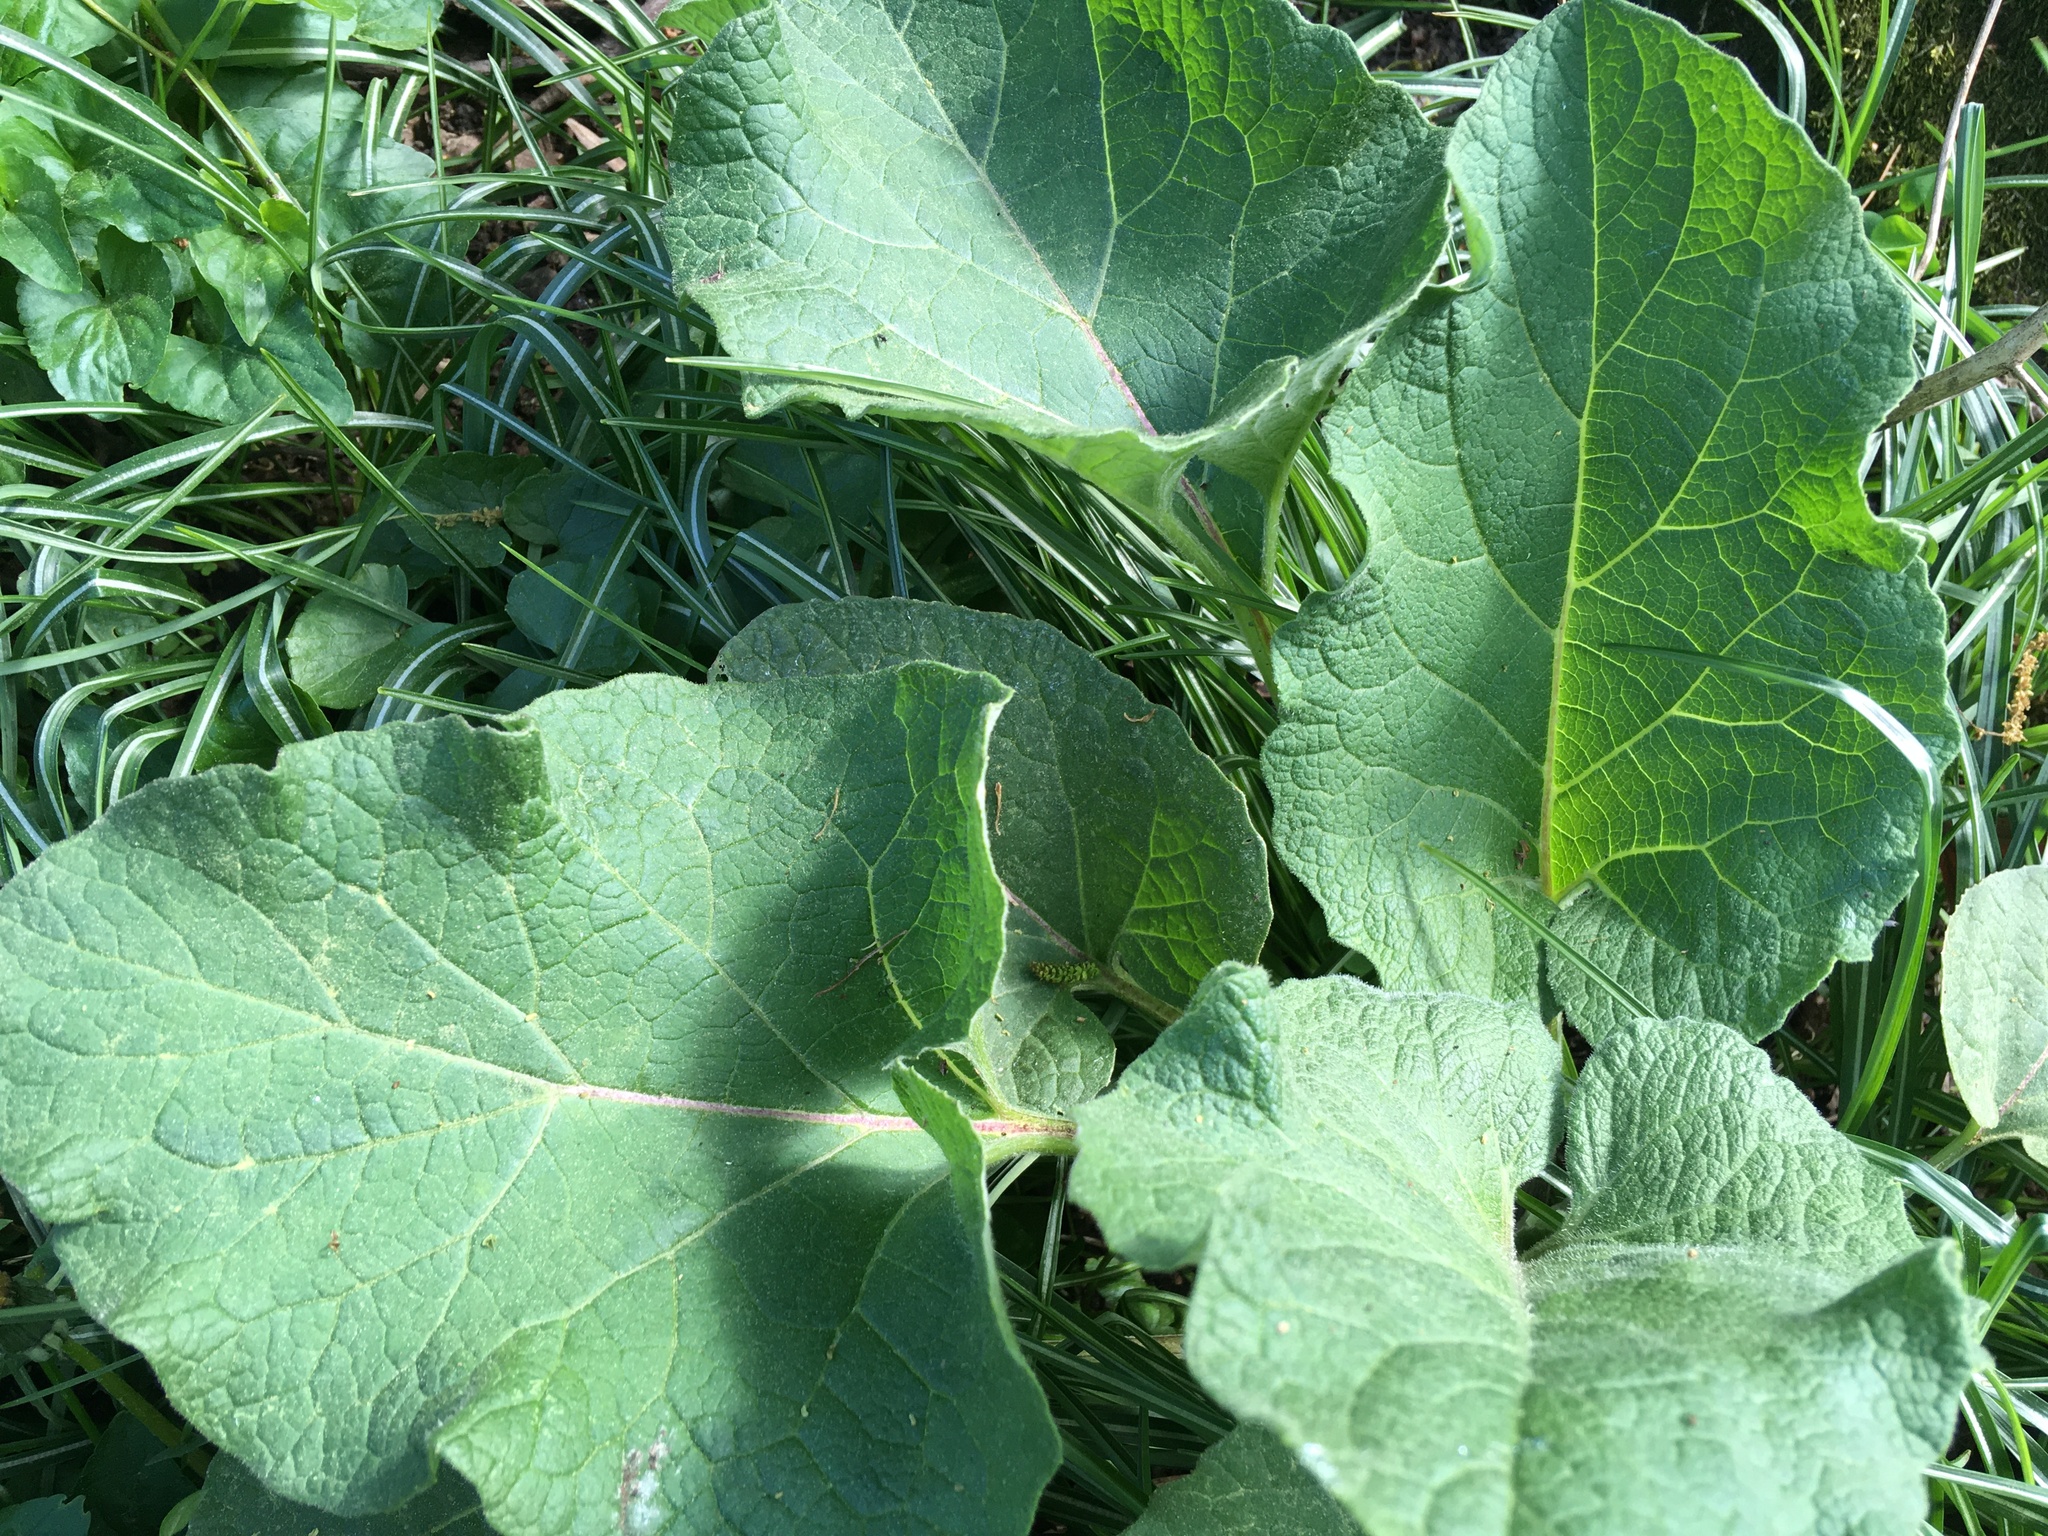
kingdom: Plantae
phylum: Tracheophyta
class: Magnoliopsida
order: Asterales
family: Asteraceae
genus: Arctium
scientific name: Arctium
